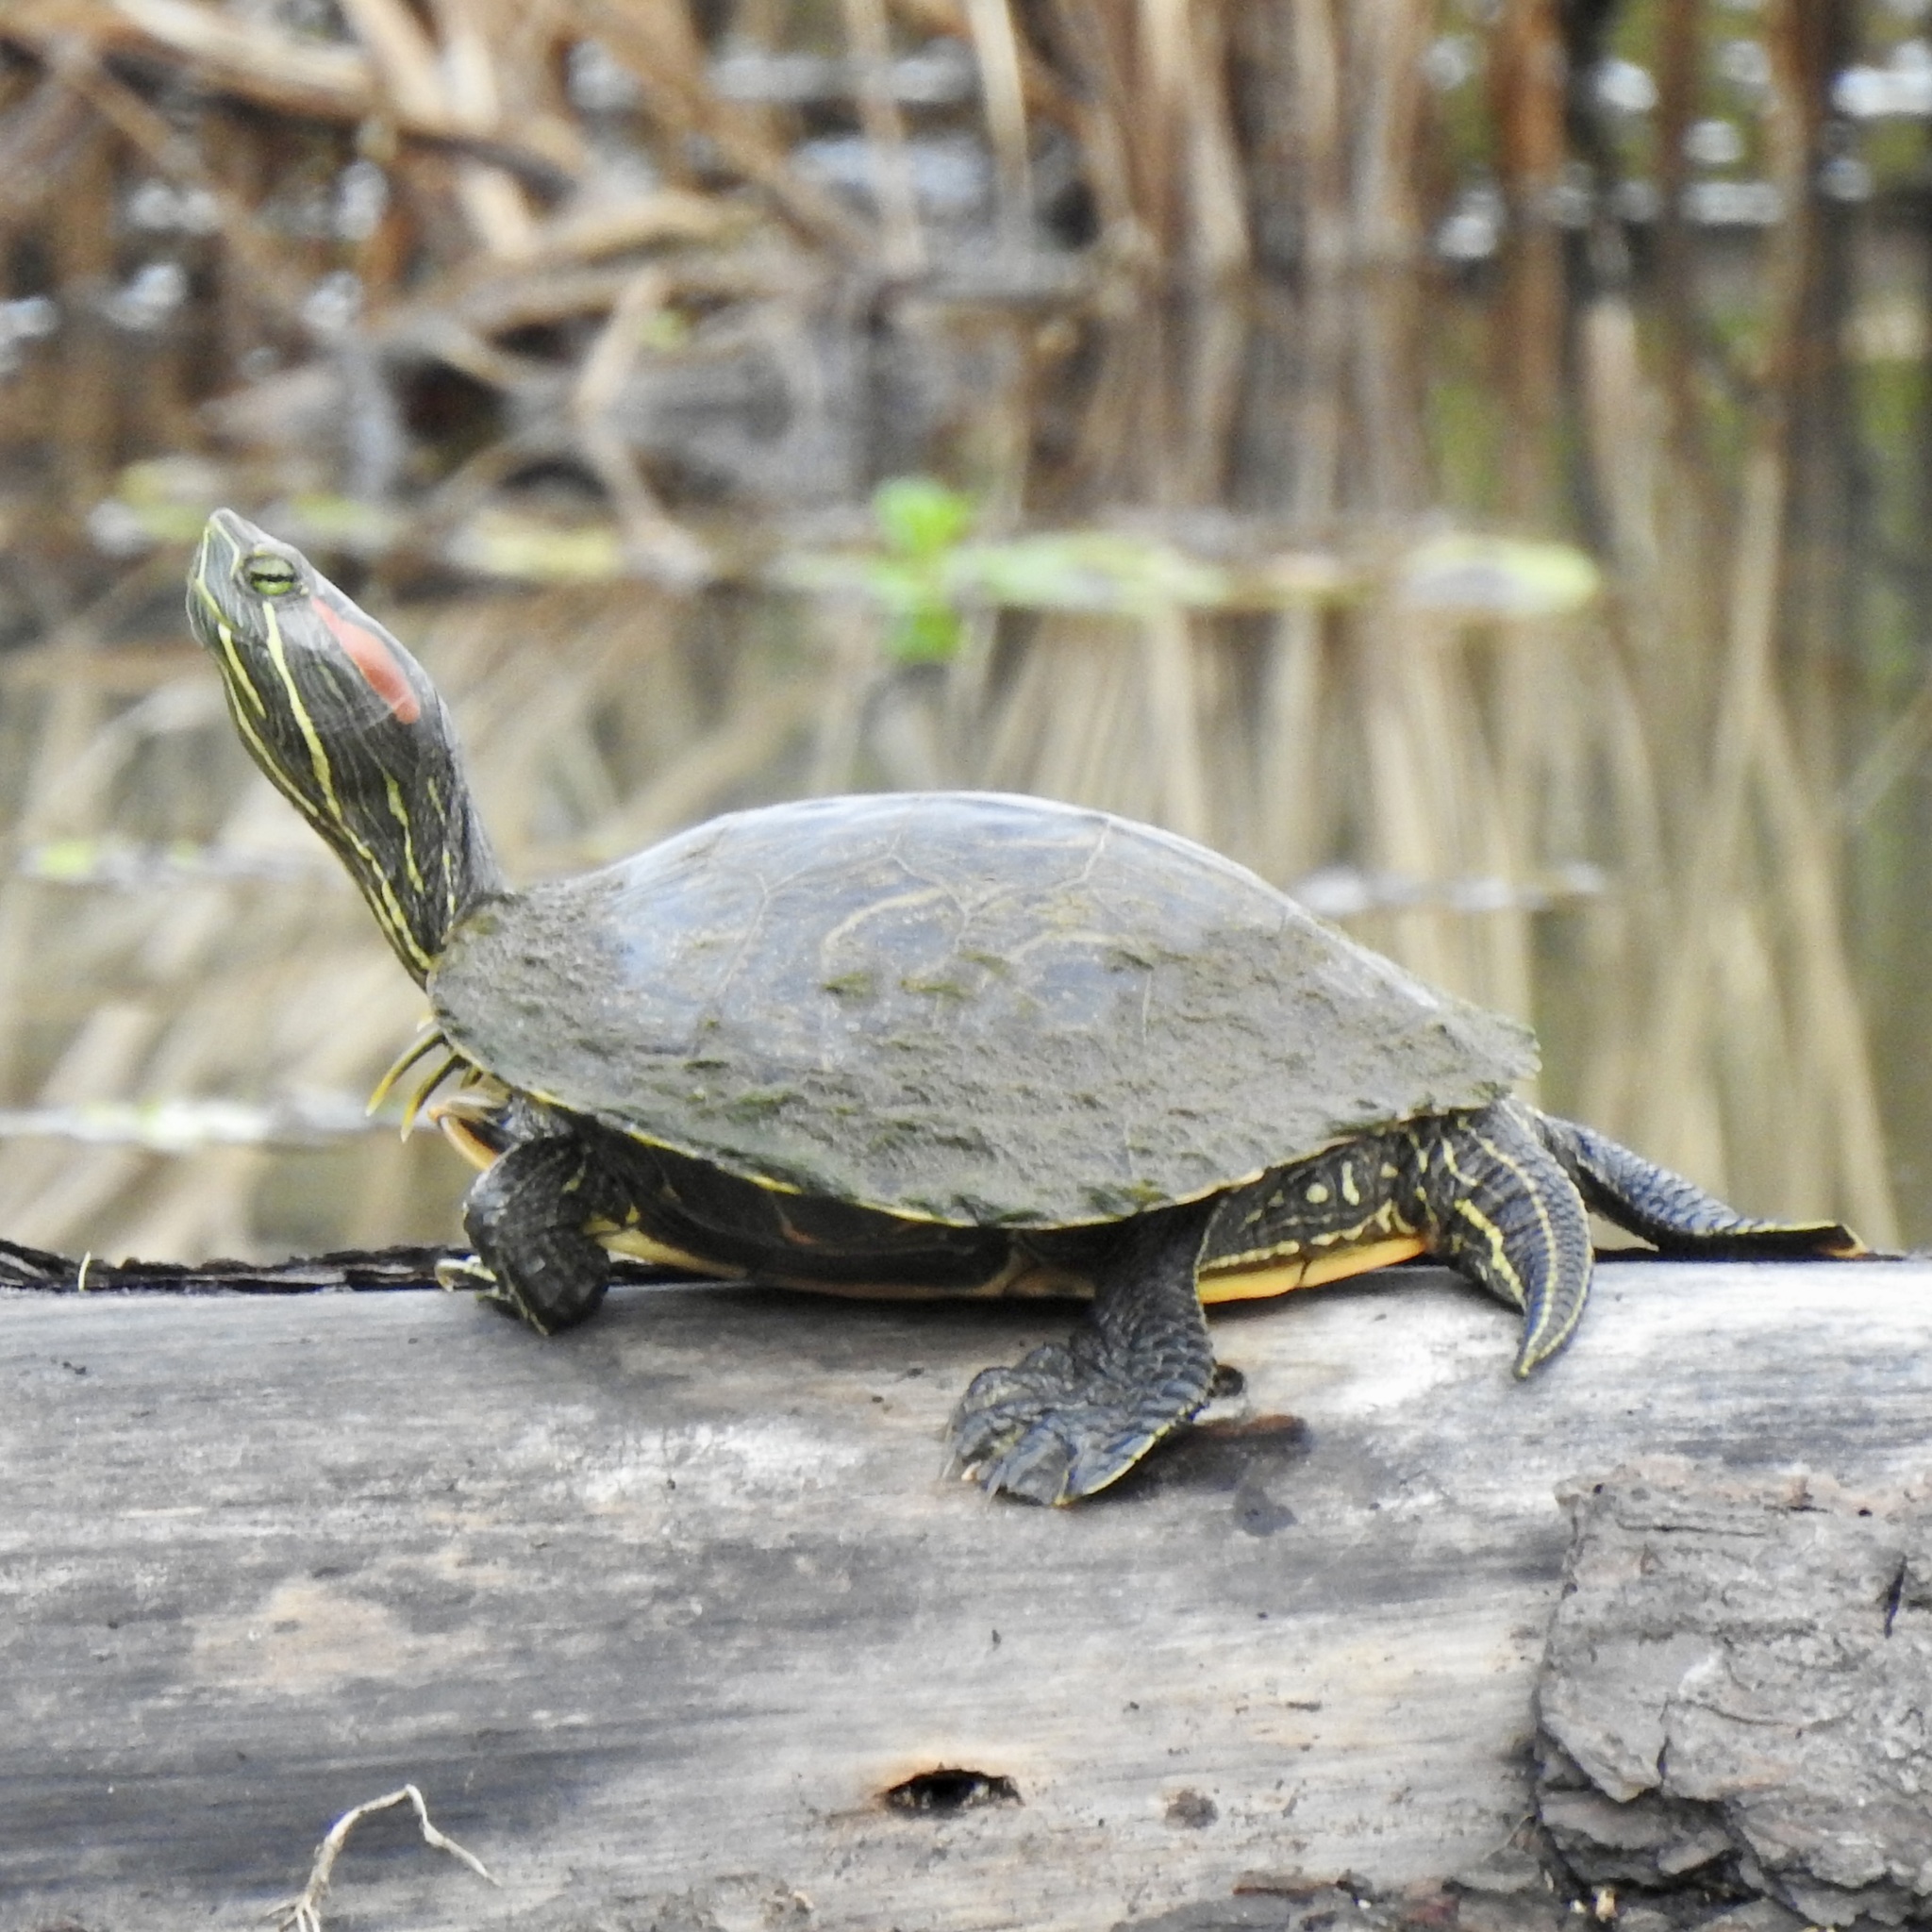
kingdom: Animalia
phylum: Chordata
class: Testudines
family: Emydidae
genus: Trachemys
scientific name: Trachemys scripta
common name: Slider
